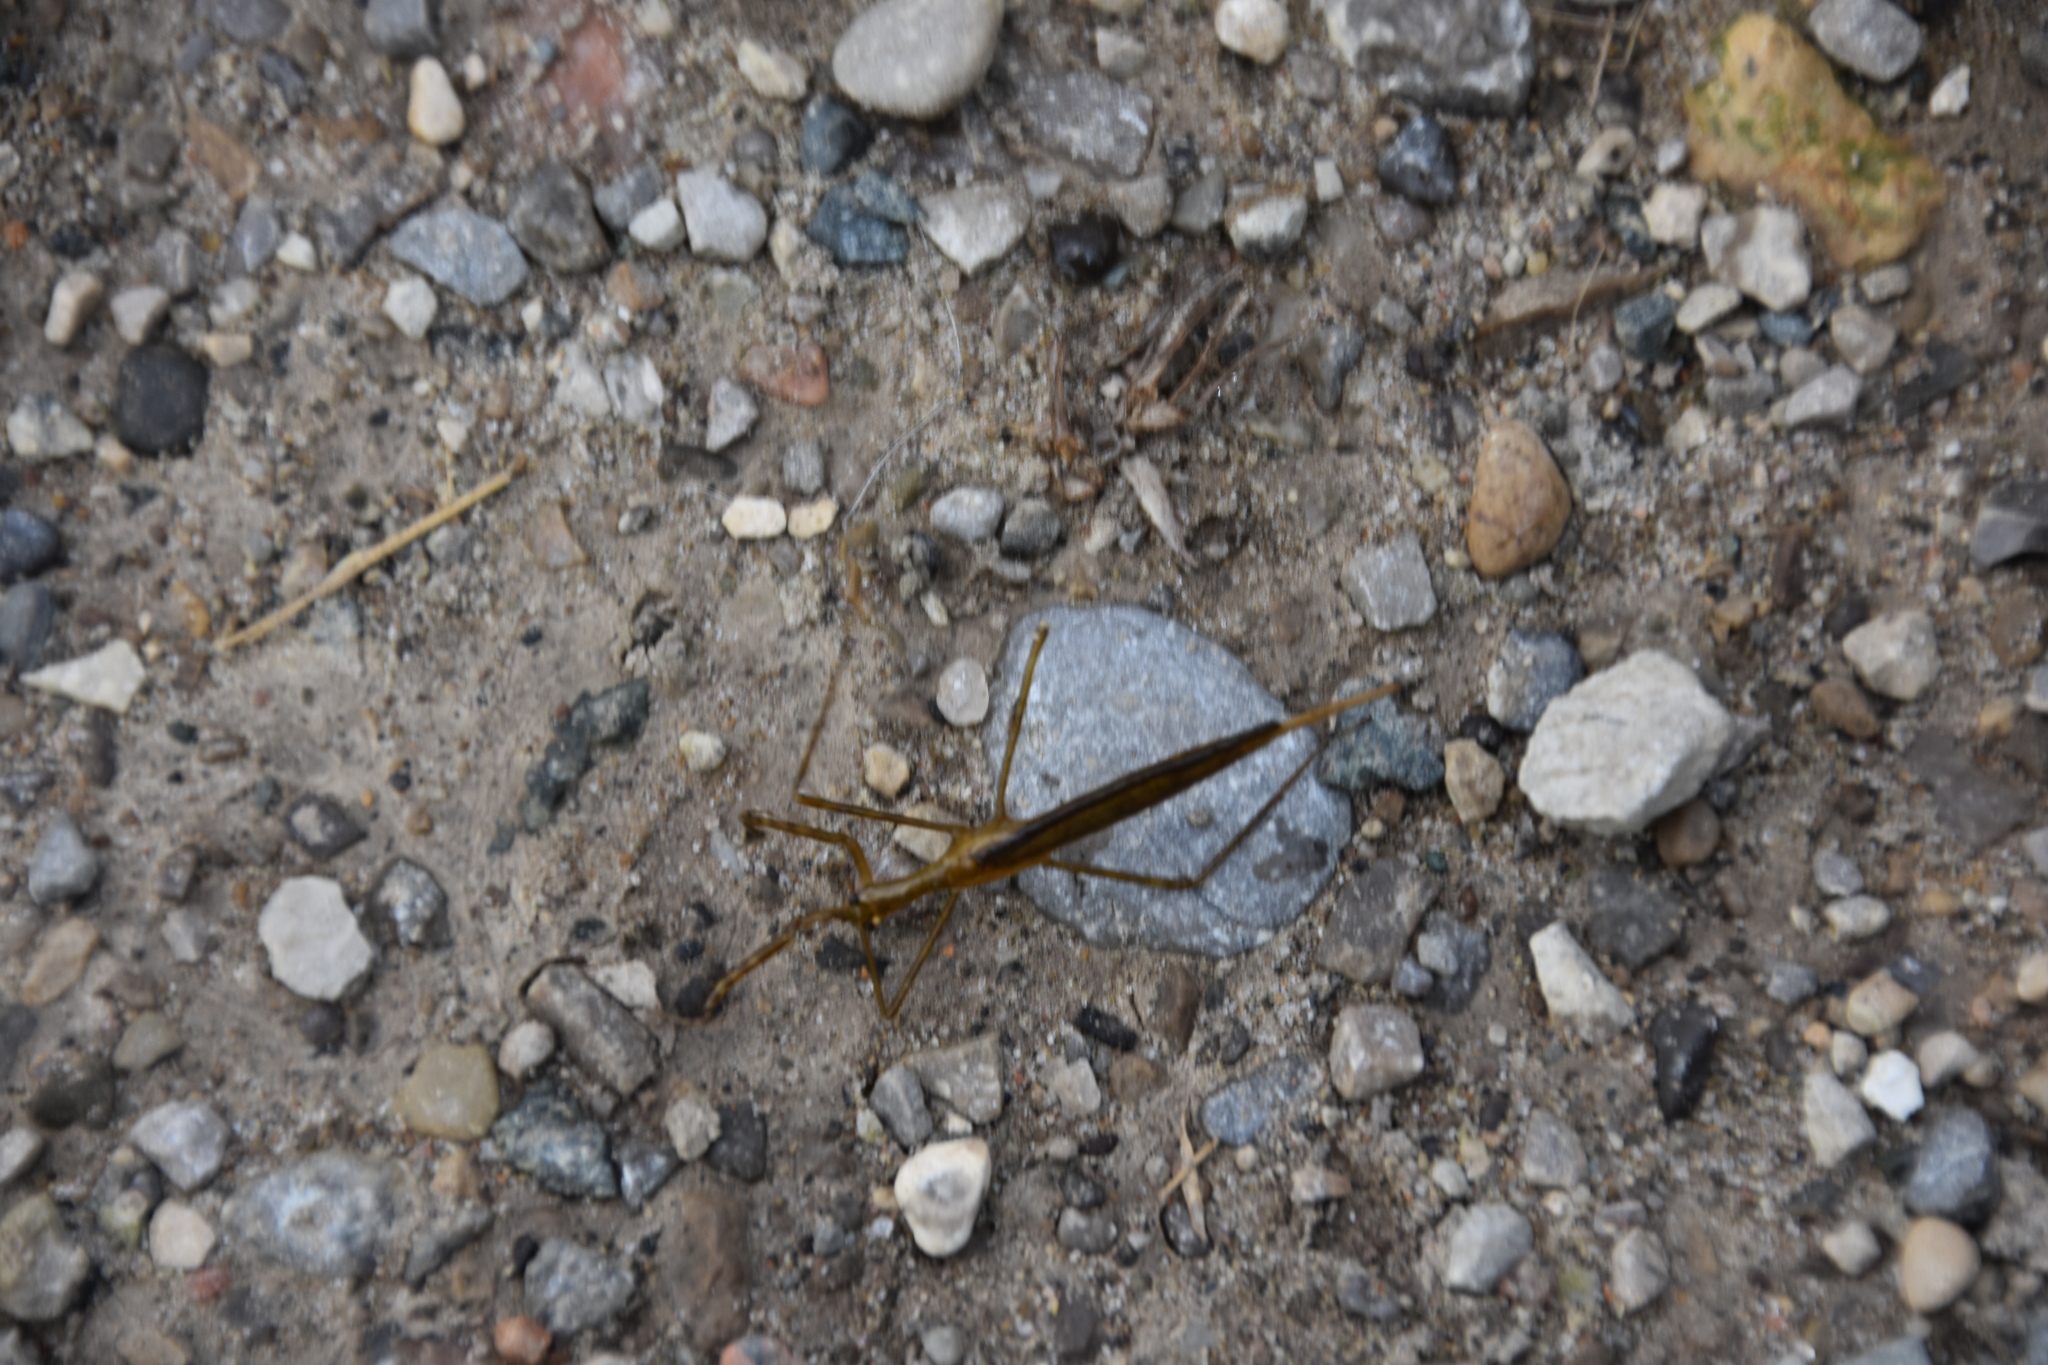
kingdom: Animalia
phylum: Arthropoda
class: Insecta
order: Hemiptera
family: Nepidae
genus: Ranatra
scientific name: Ranatra fusca
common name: Brown waterscorpion
